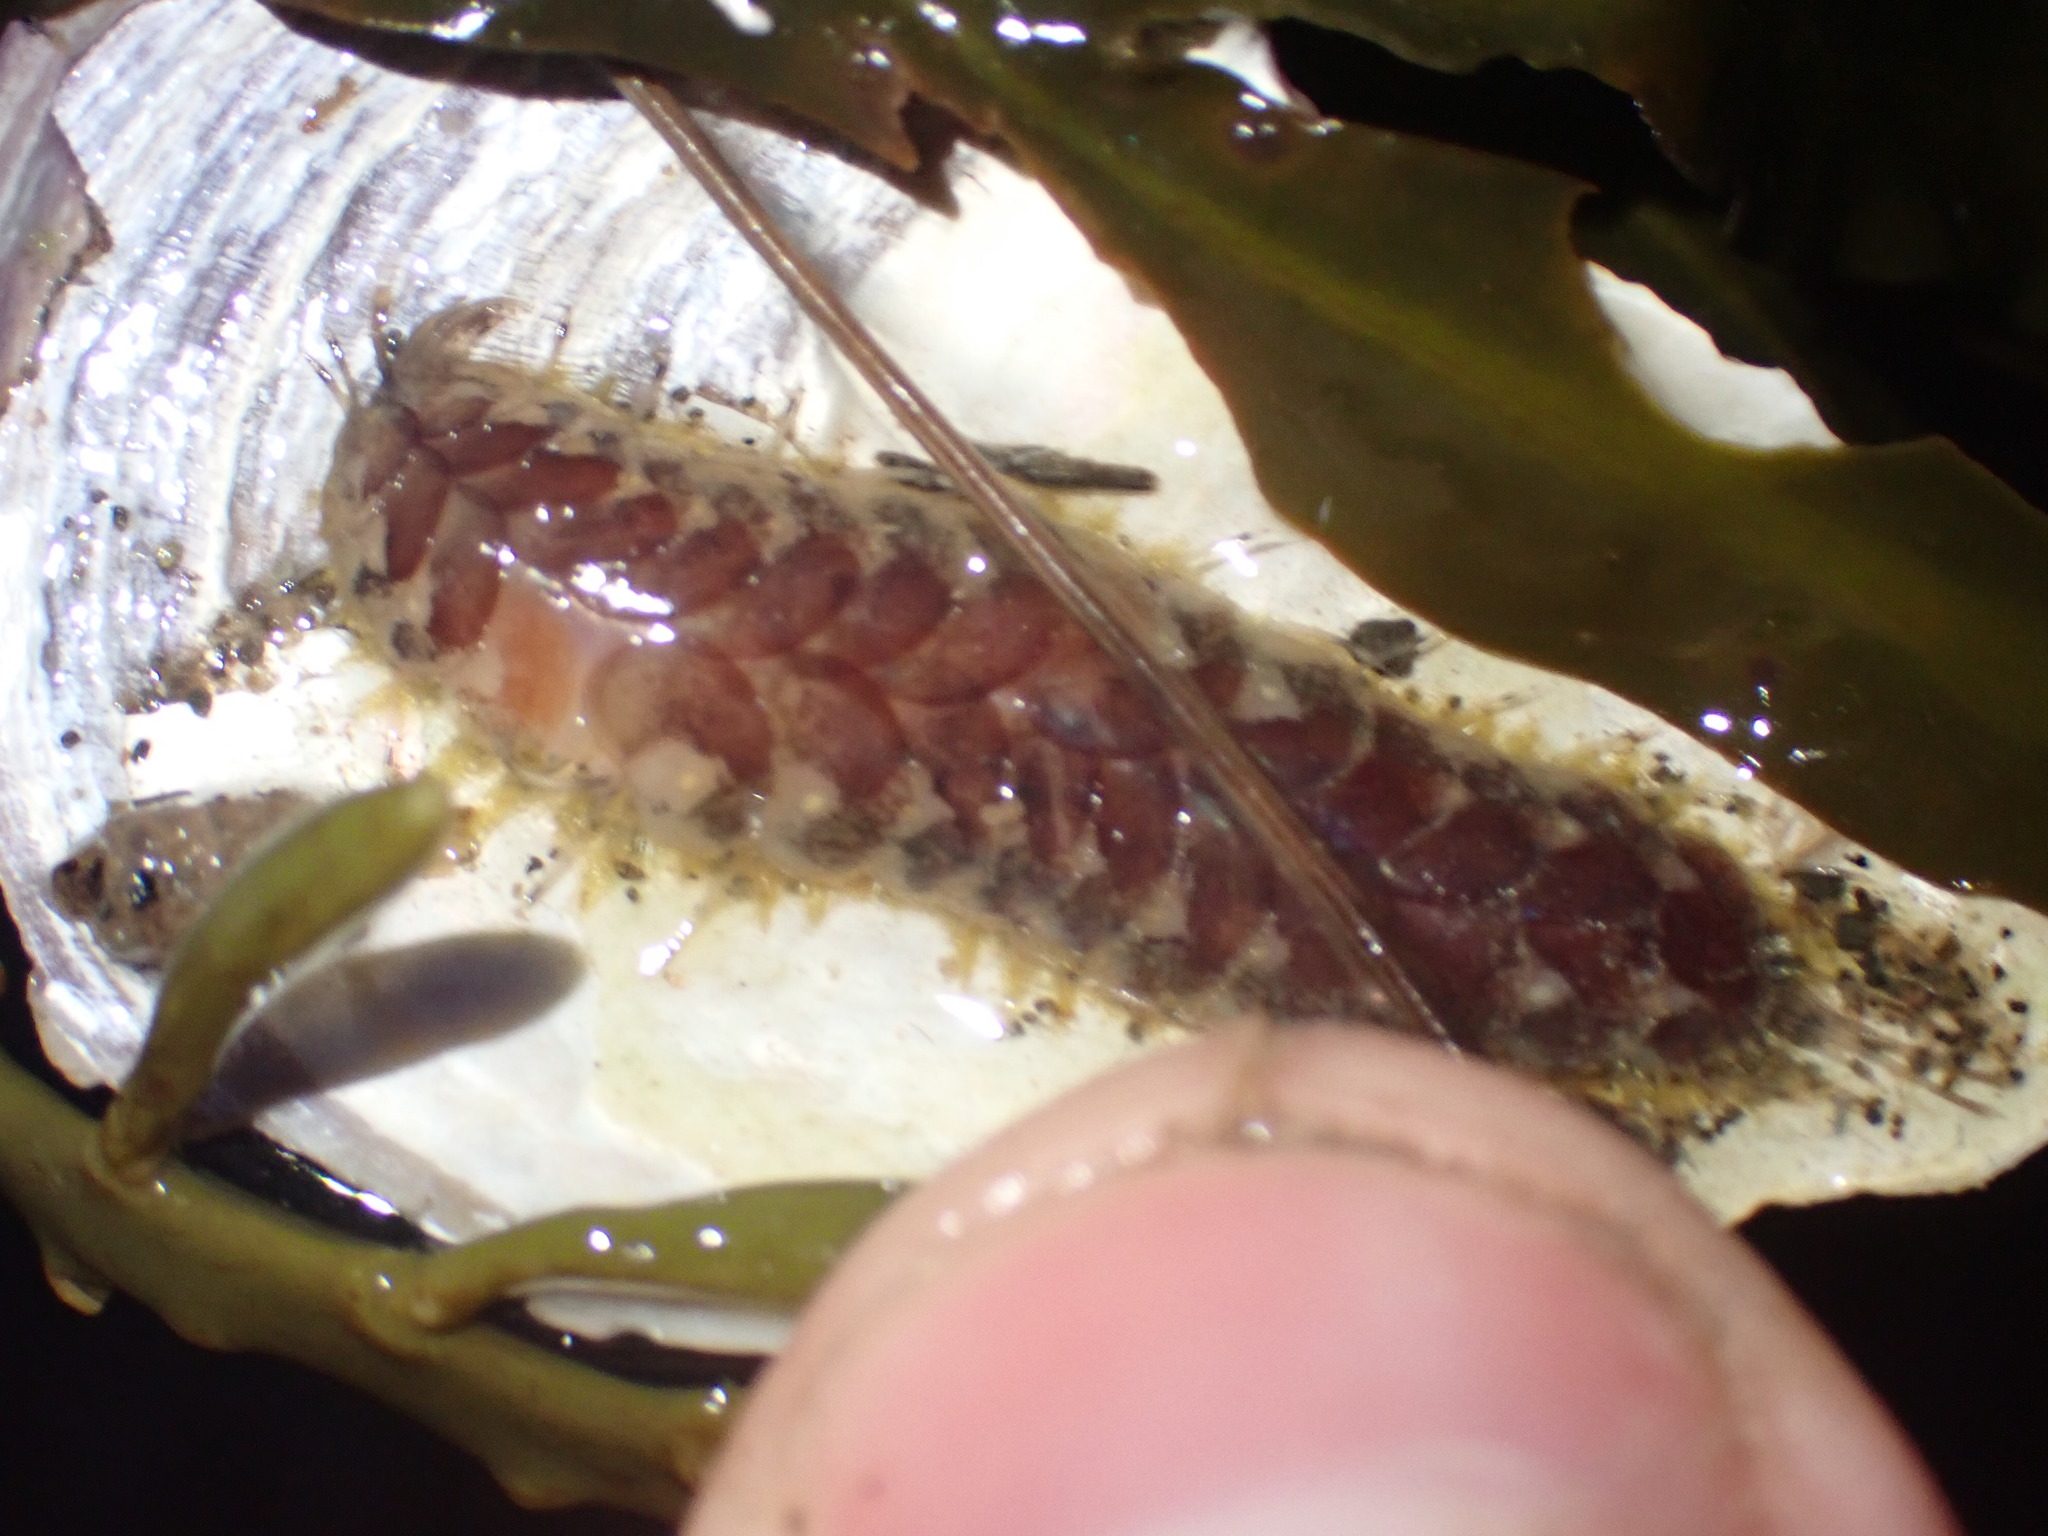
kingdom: Animalia
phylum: Annelida
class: Polychaeta
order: Phyllodocida
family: Polynoidae
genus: Harmothoe
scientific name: Harmothoe imbricata
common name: Fifteen-scaled worm
